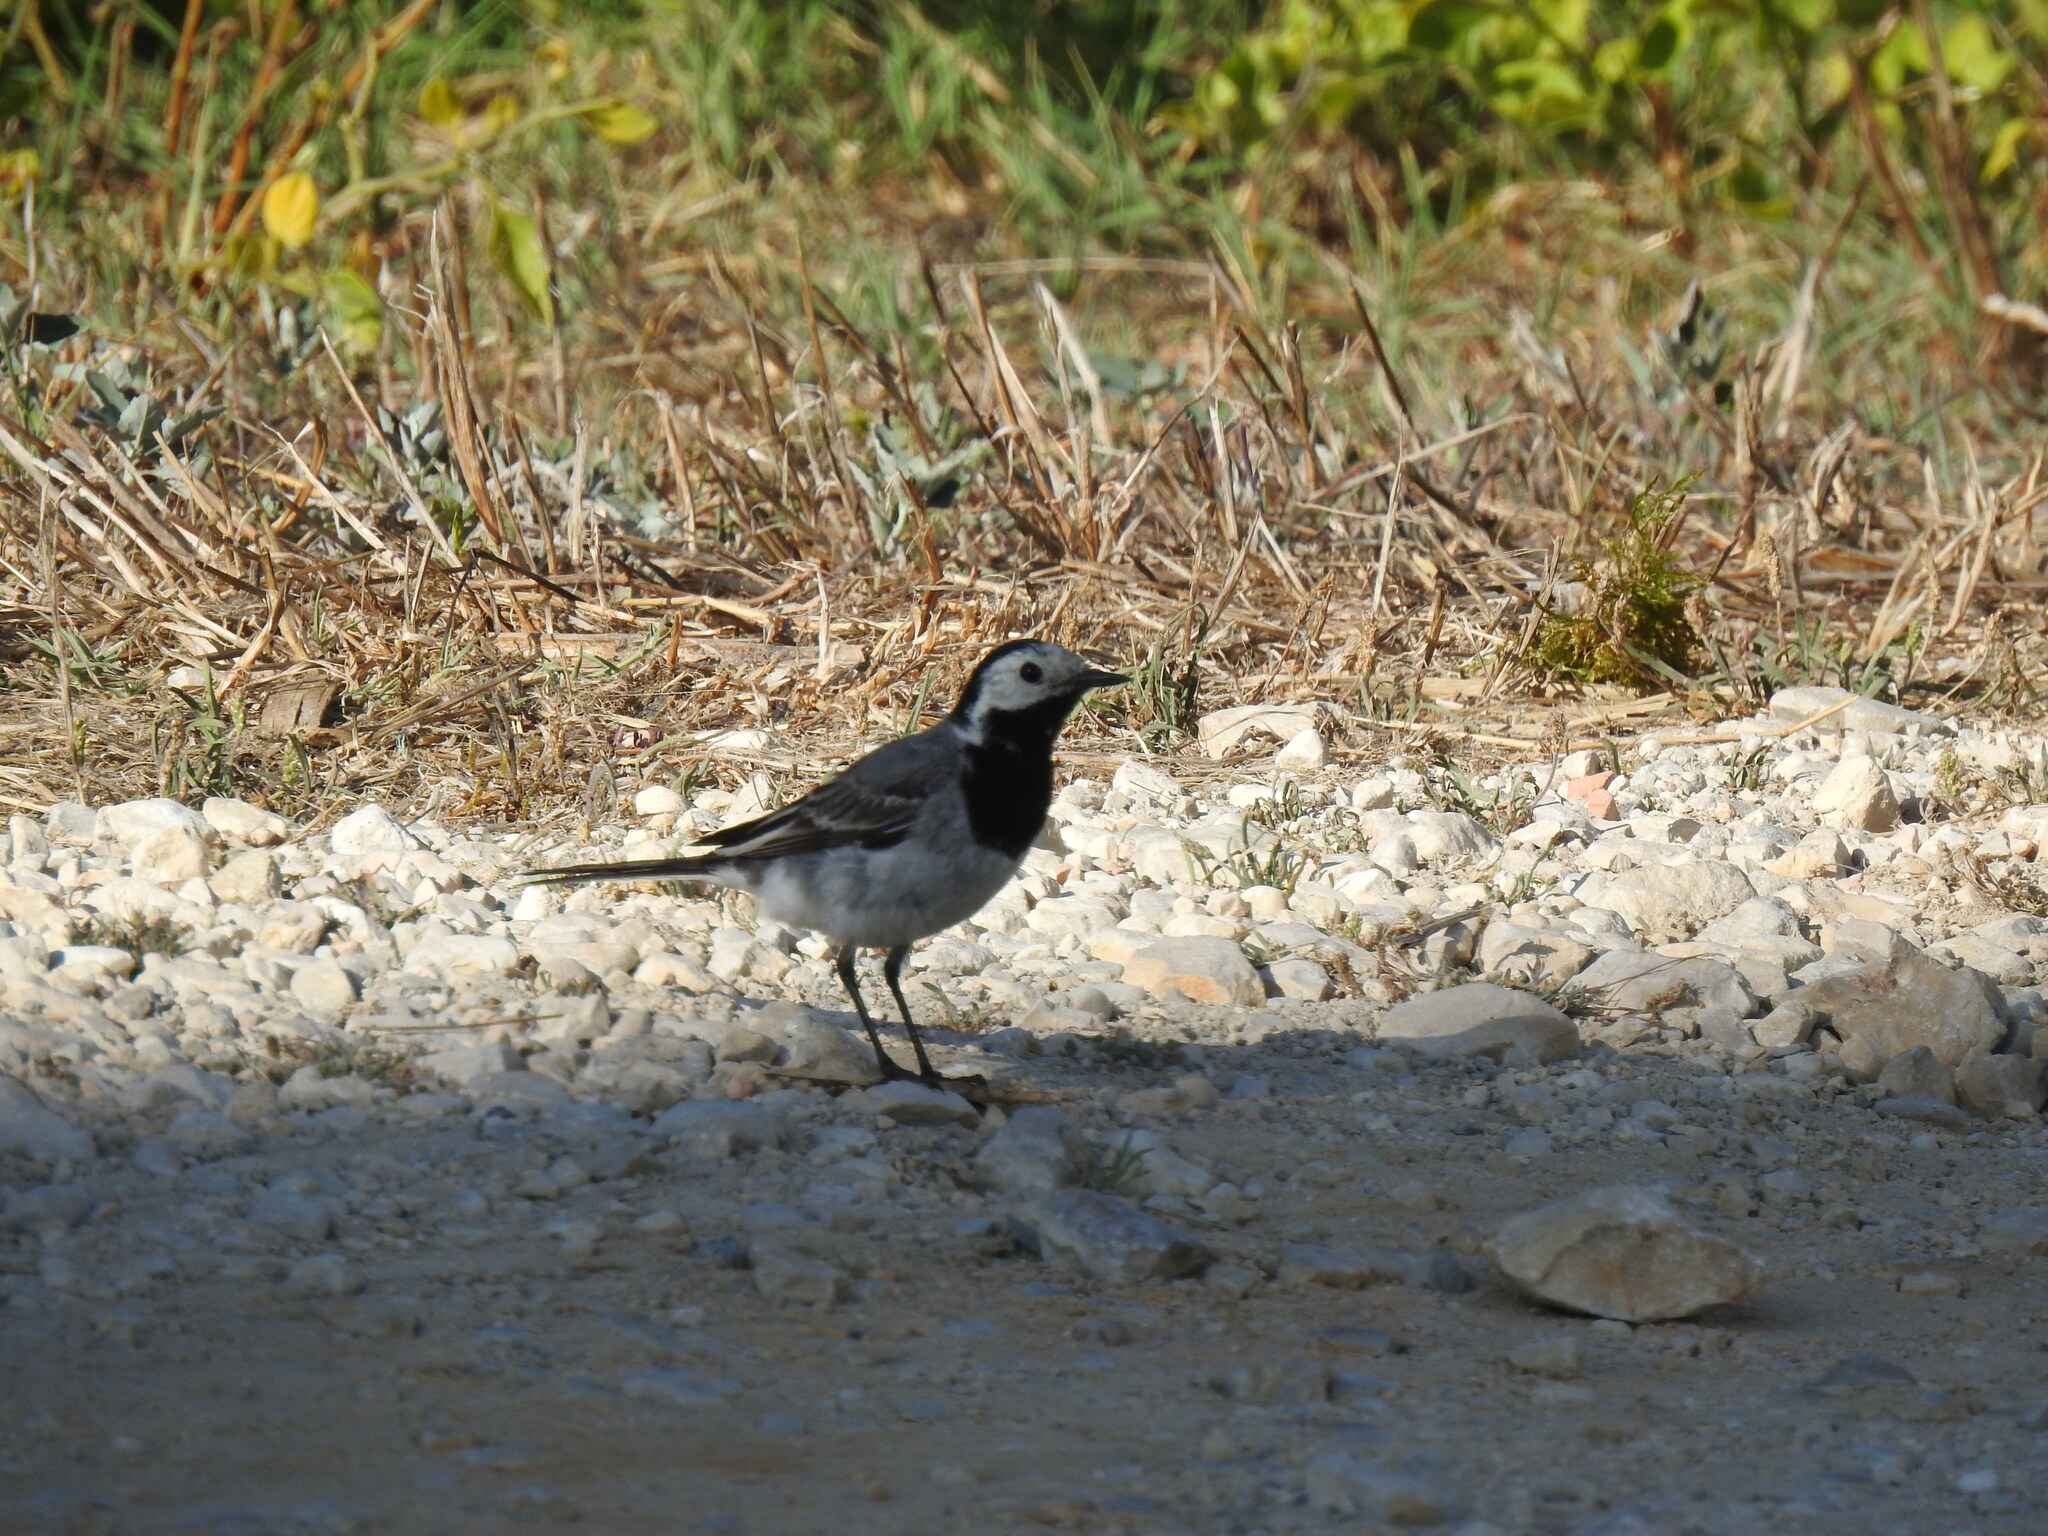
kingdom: Animalia
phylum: Chordata
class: Aves
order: Passeriformes
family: Motacillidae
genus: Motacilla
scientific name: Motacilla alba
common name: White wagtail
